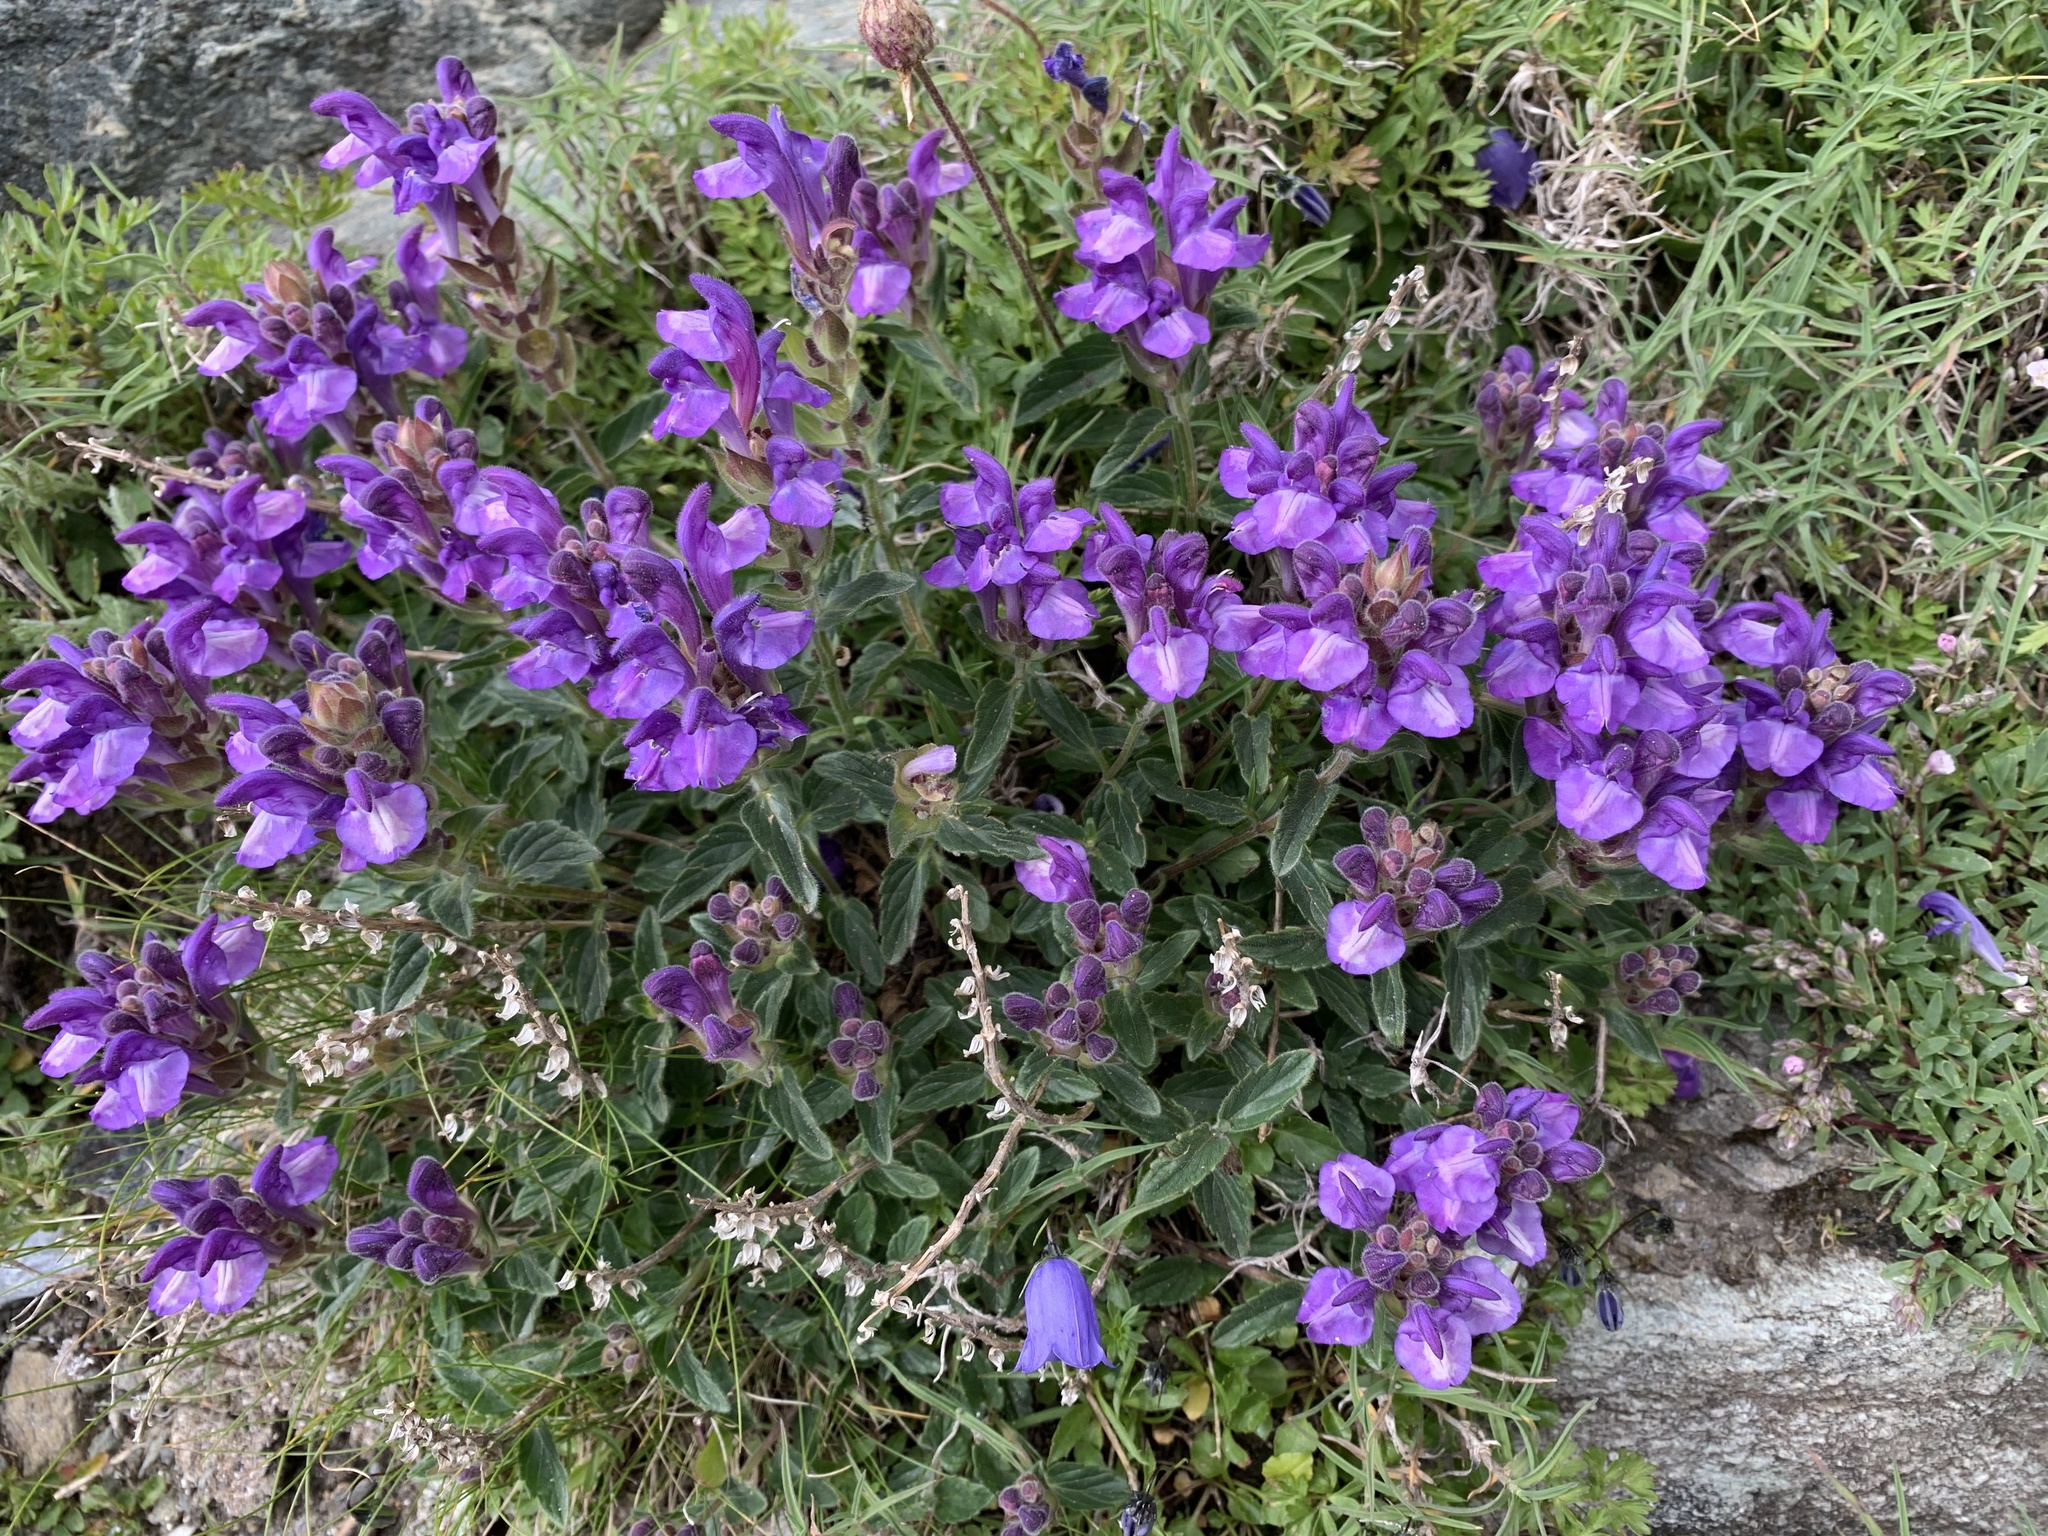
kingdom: Plantae
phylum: Tracheophyta
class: Magnoliopsida
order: Lamiales
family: Lamiaceae
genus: Scutellaria
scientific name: Scutellaria alpina
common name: Alpine scullcap
